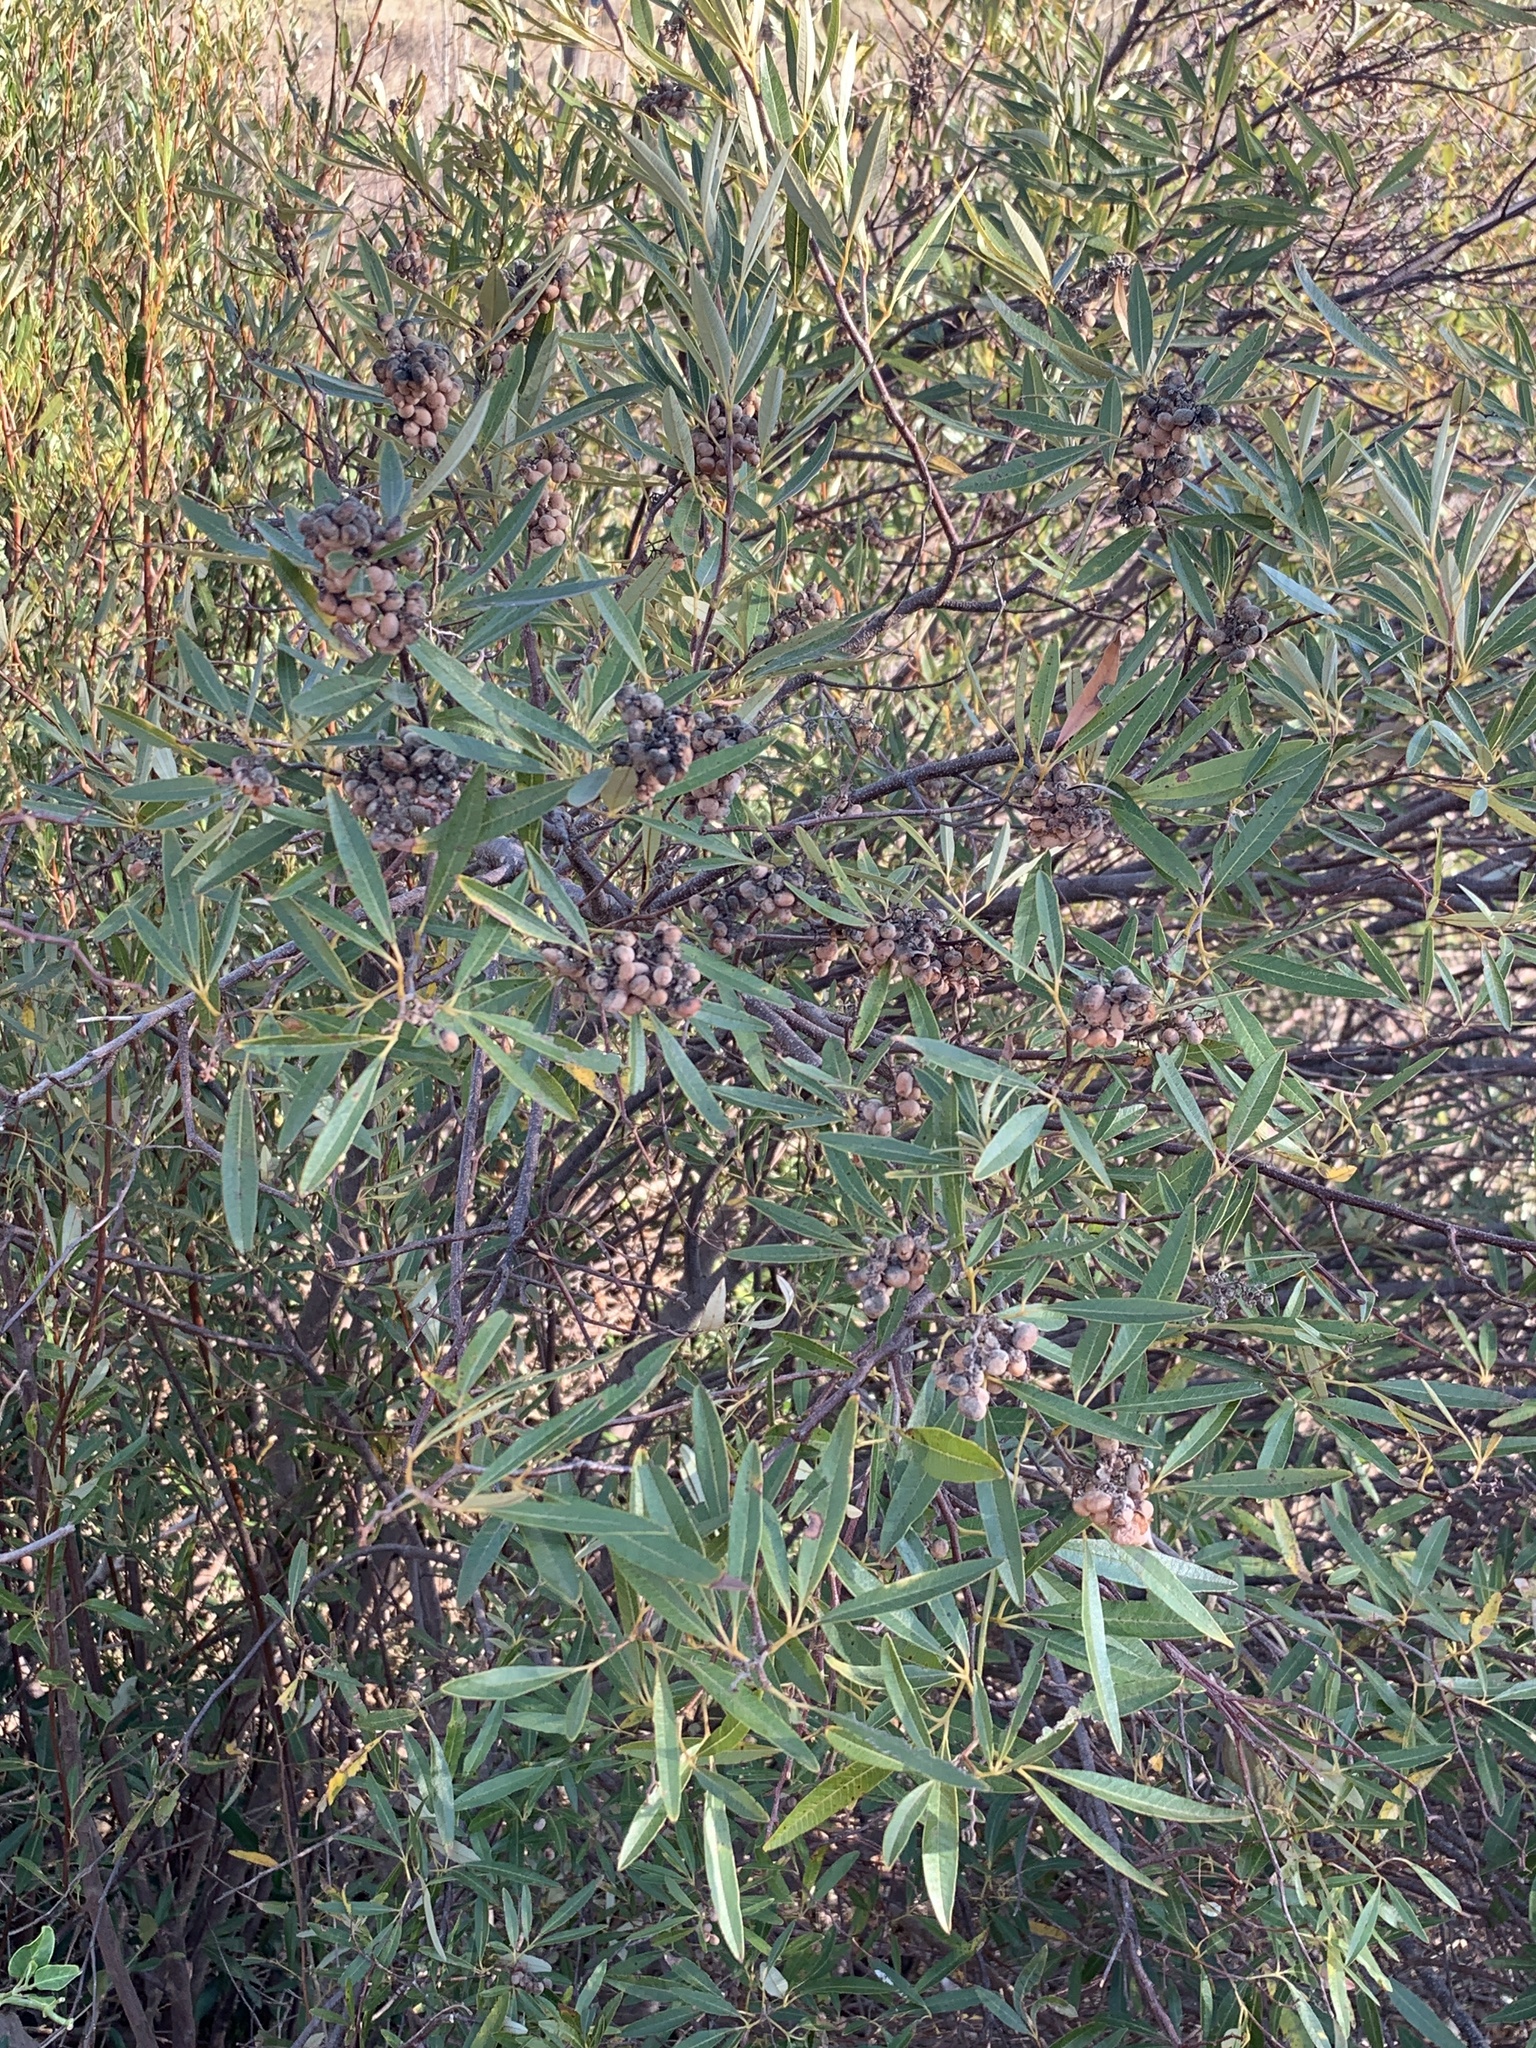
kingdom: Plantae
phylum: Tracheophyta
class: Magnoliopsida
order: Sapindales
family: Anacardiaceae
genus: Searsia
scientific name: Searsia angustifolia
